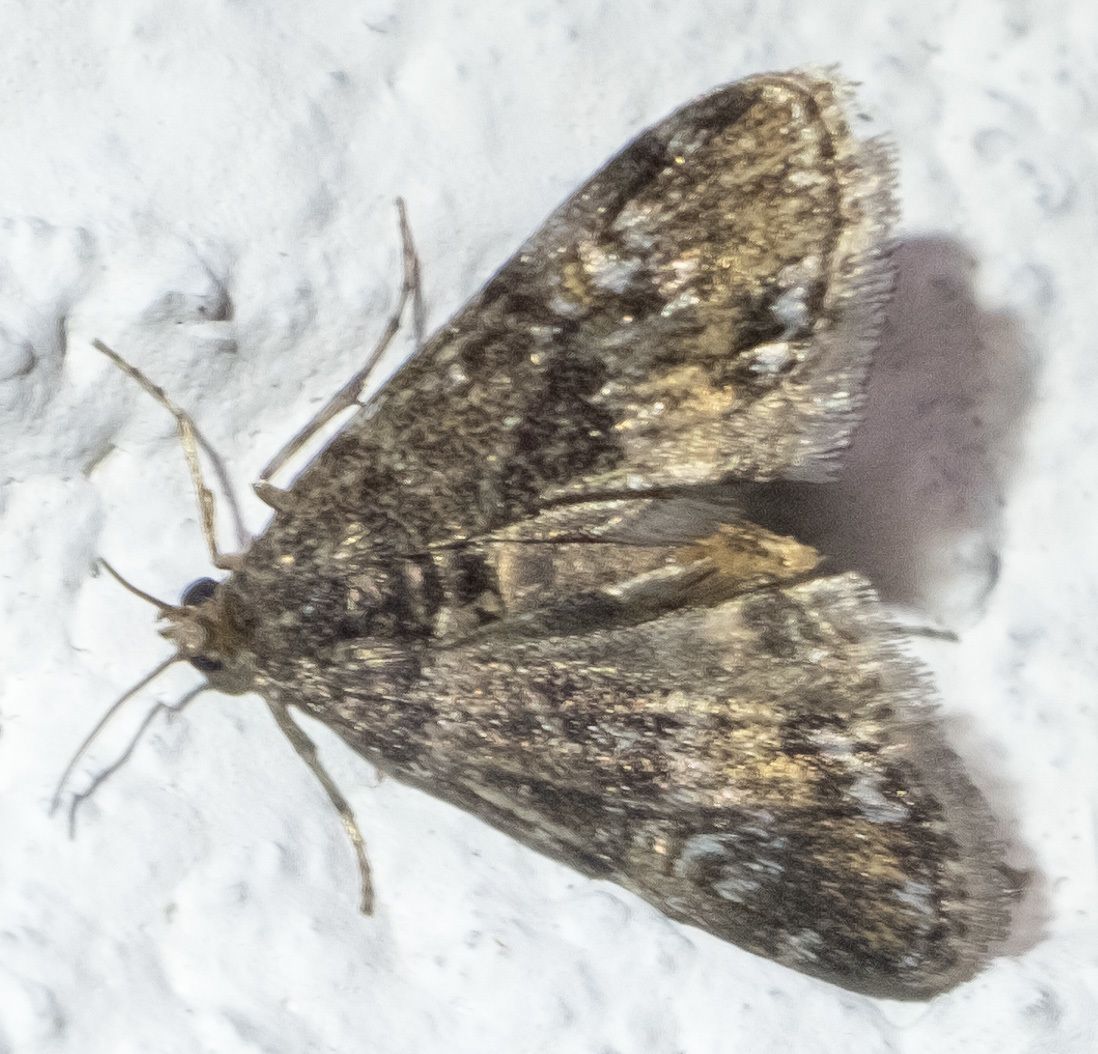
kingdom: Animalia
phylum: Arthropoda
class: Insecta
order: Lepidoptera
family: Crambidae
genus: Elophila
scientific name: Elophila obliteralis
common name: Waterlily leafcutter moth
